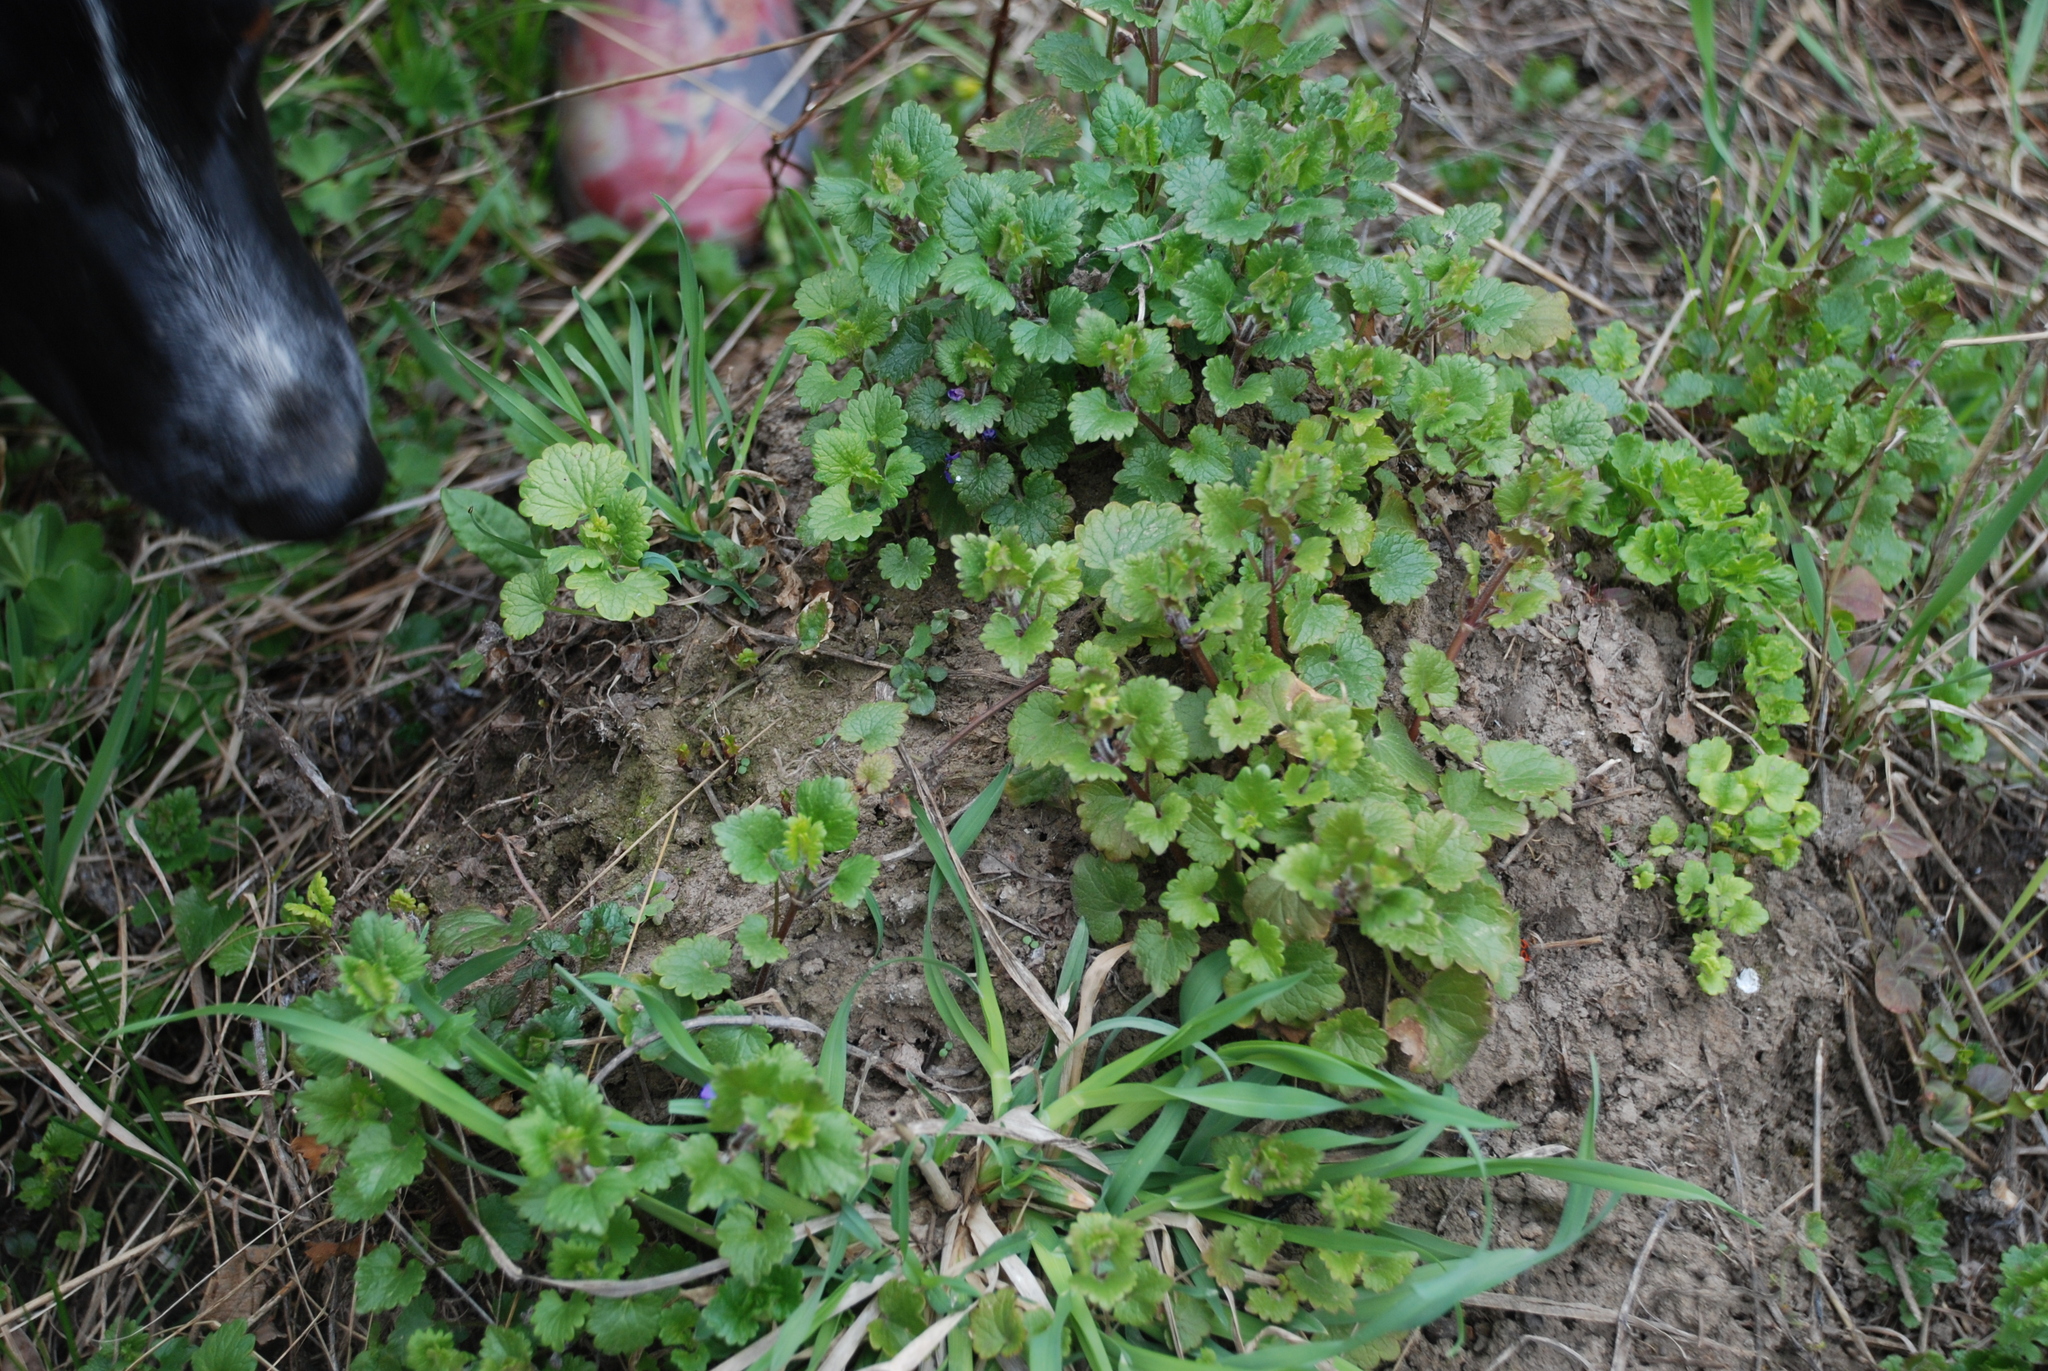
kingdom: Plantae
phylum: Tracheophyta
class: Magnoliopsida
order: Lamiales
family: Lamiaceae
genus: Glechoma
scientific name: Glechoma hederacea
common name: Ground ivy
